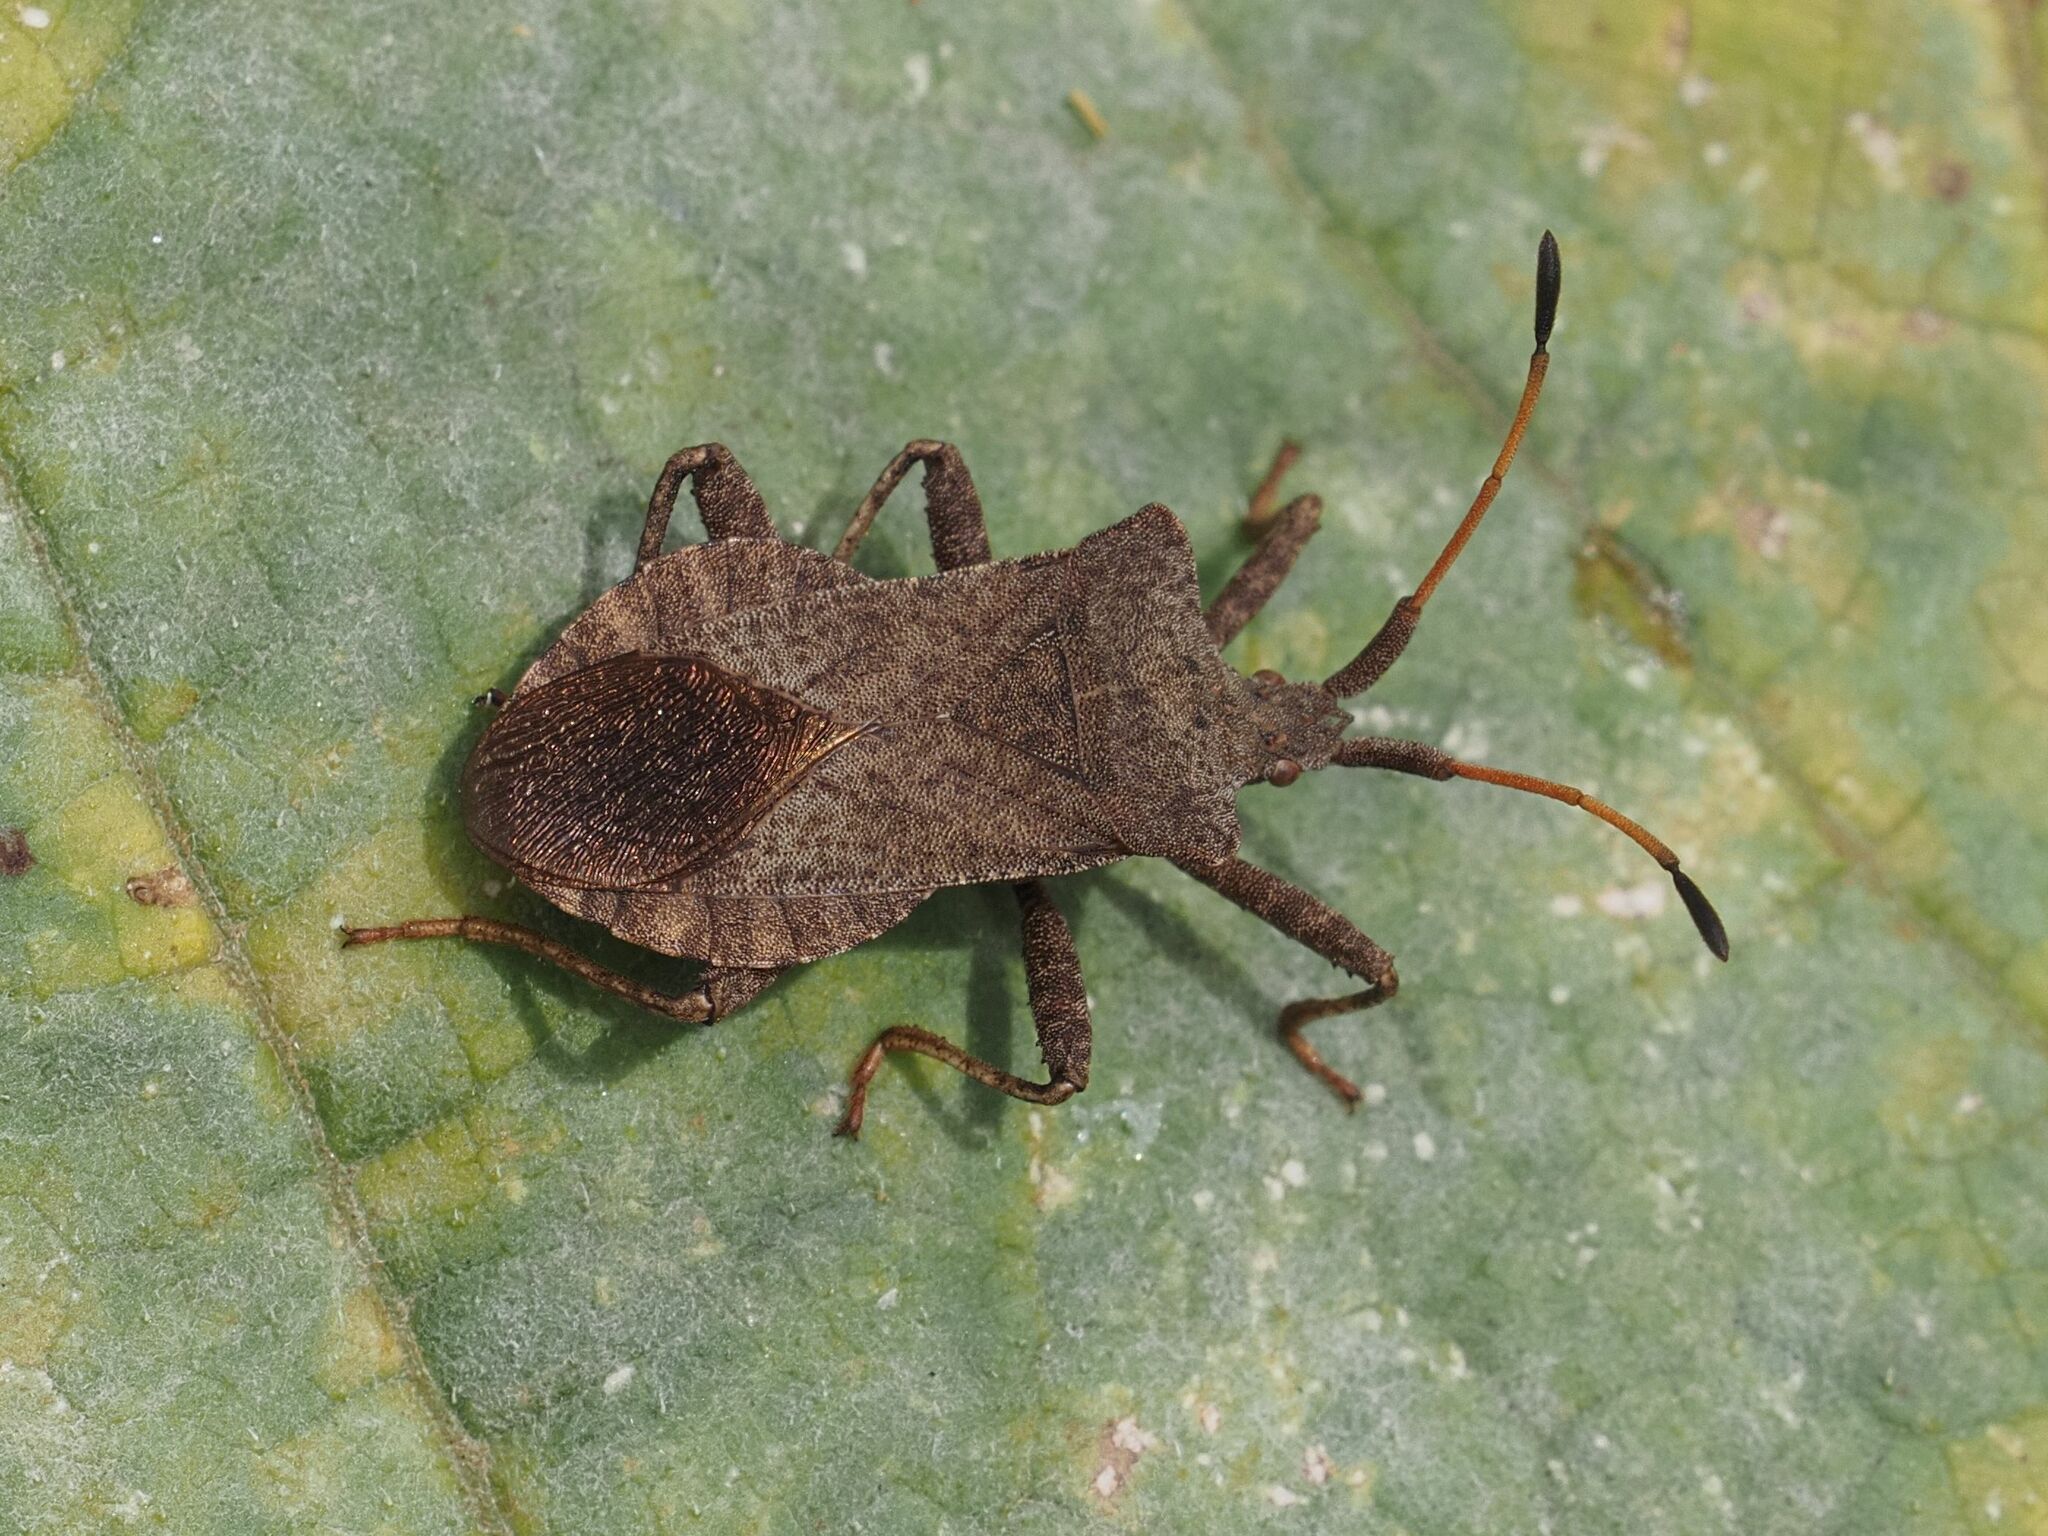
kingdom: Animalia
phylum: Arthropoda
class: Insecta
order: Hemiptera
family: Coreidae
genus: Coreus
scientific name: Coreus marginatus
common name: Dock bug
